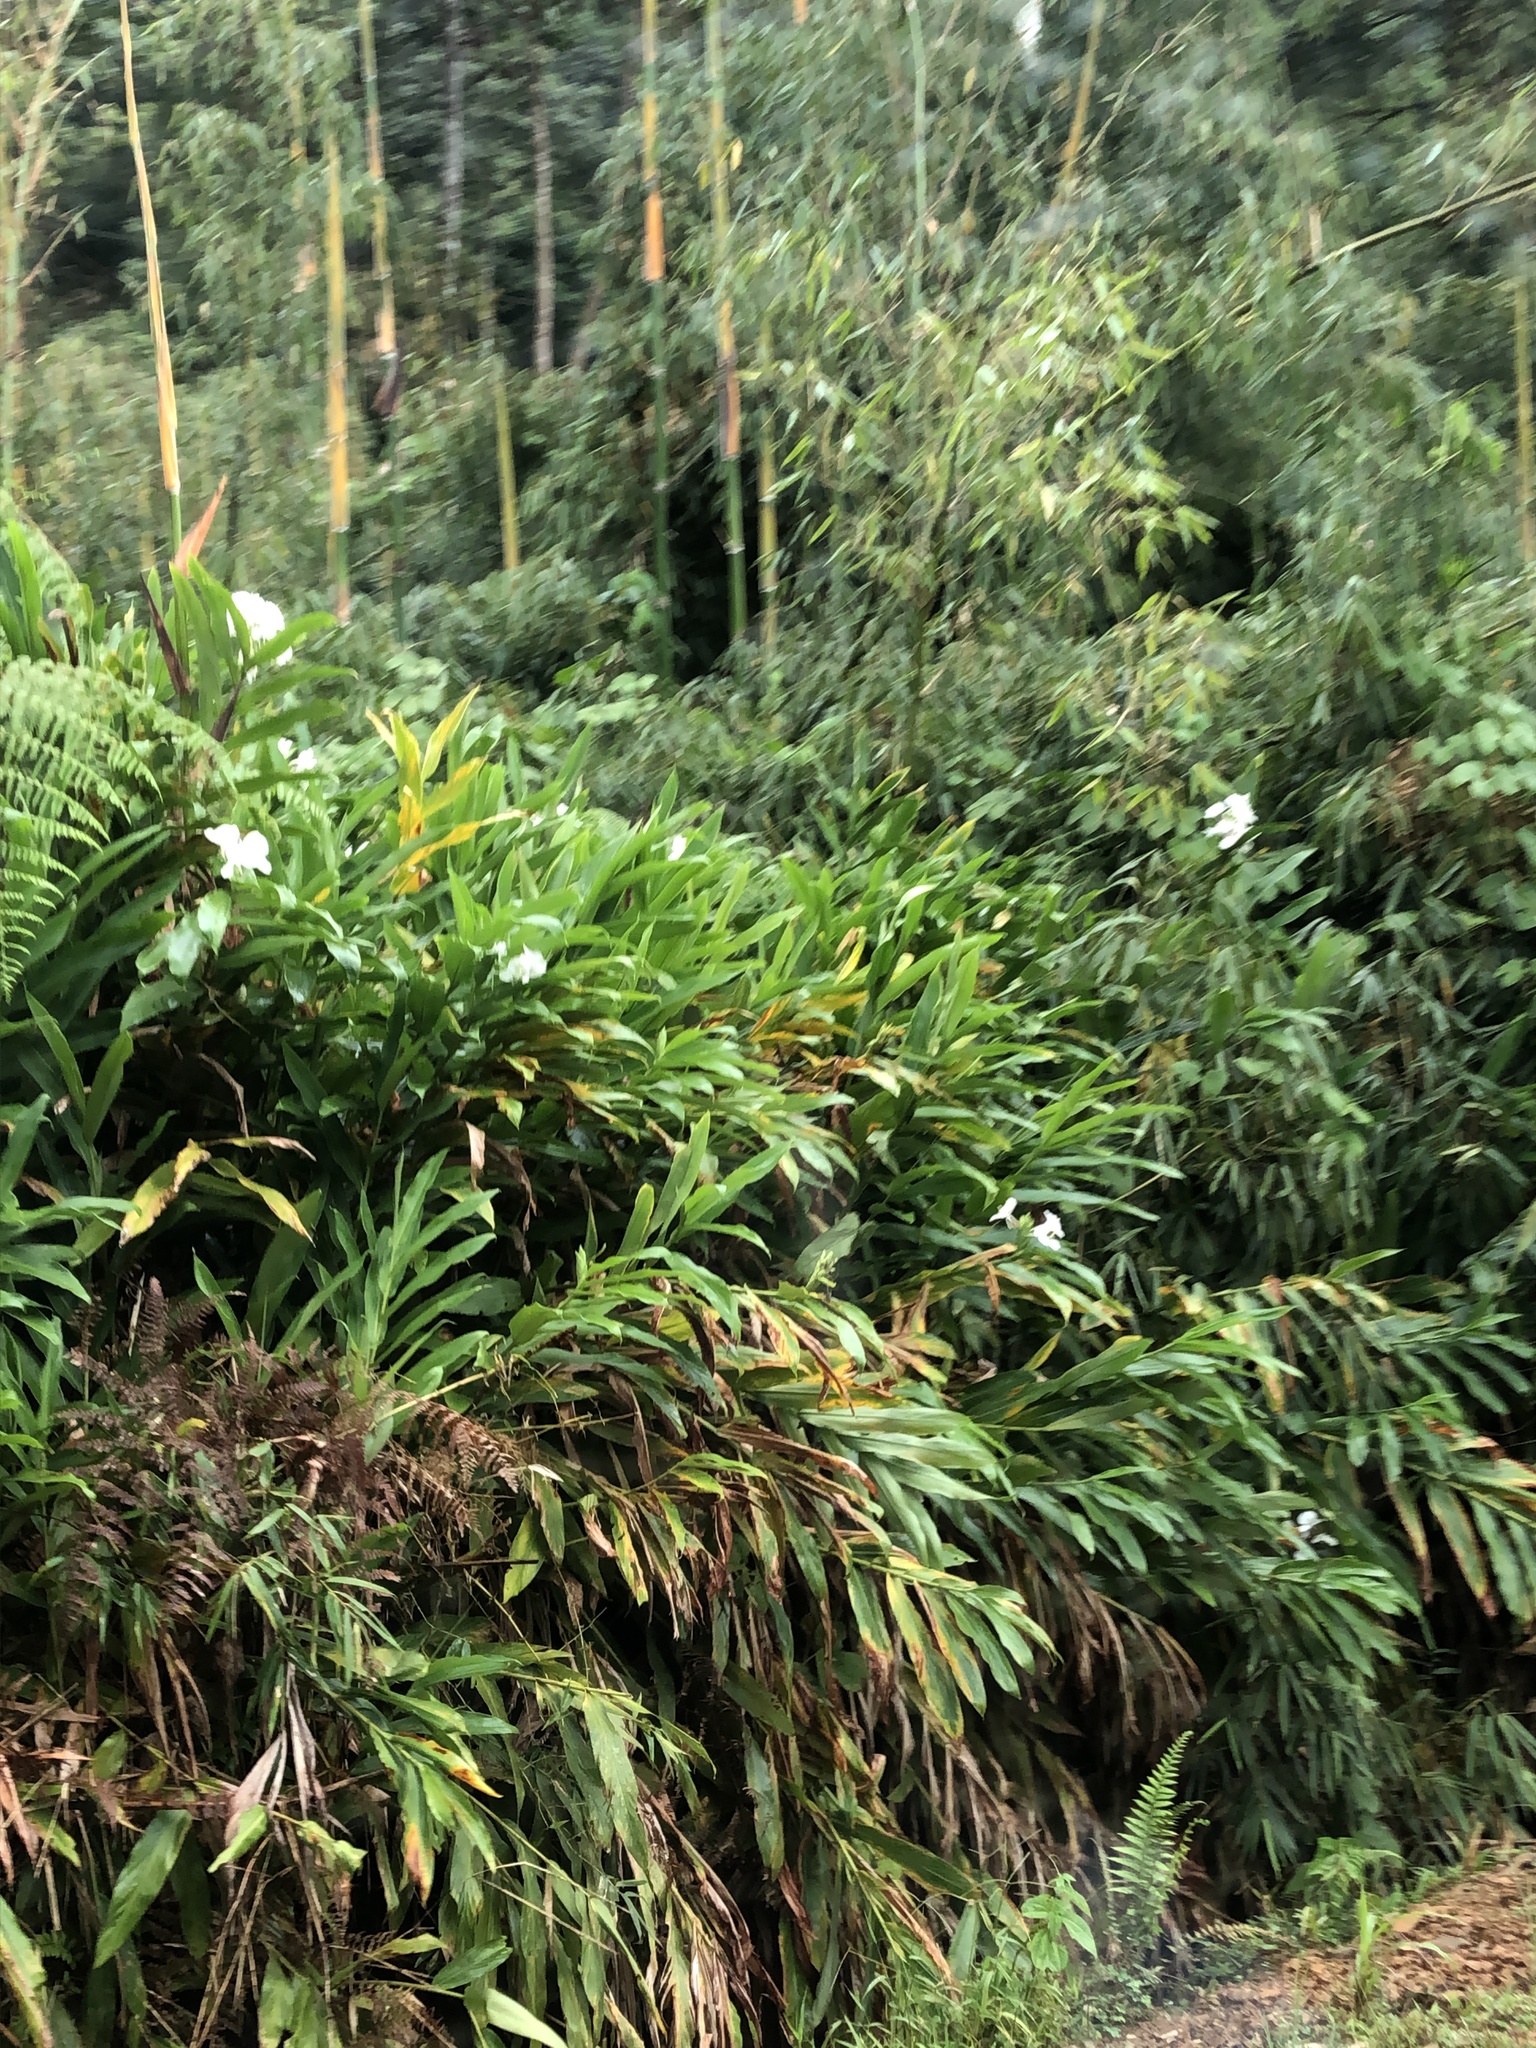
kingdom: Plantae
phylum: Tracheophyta
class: Liliopsida
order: Zingiberales
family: Zingiberaceae
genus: Hedychium
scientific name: Hedychium coronarium
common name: White garland-lily
